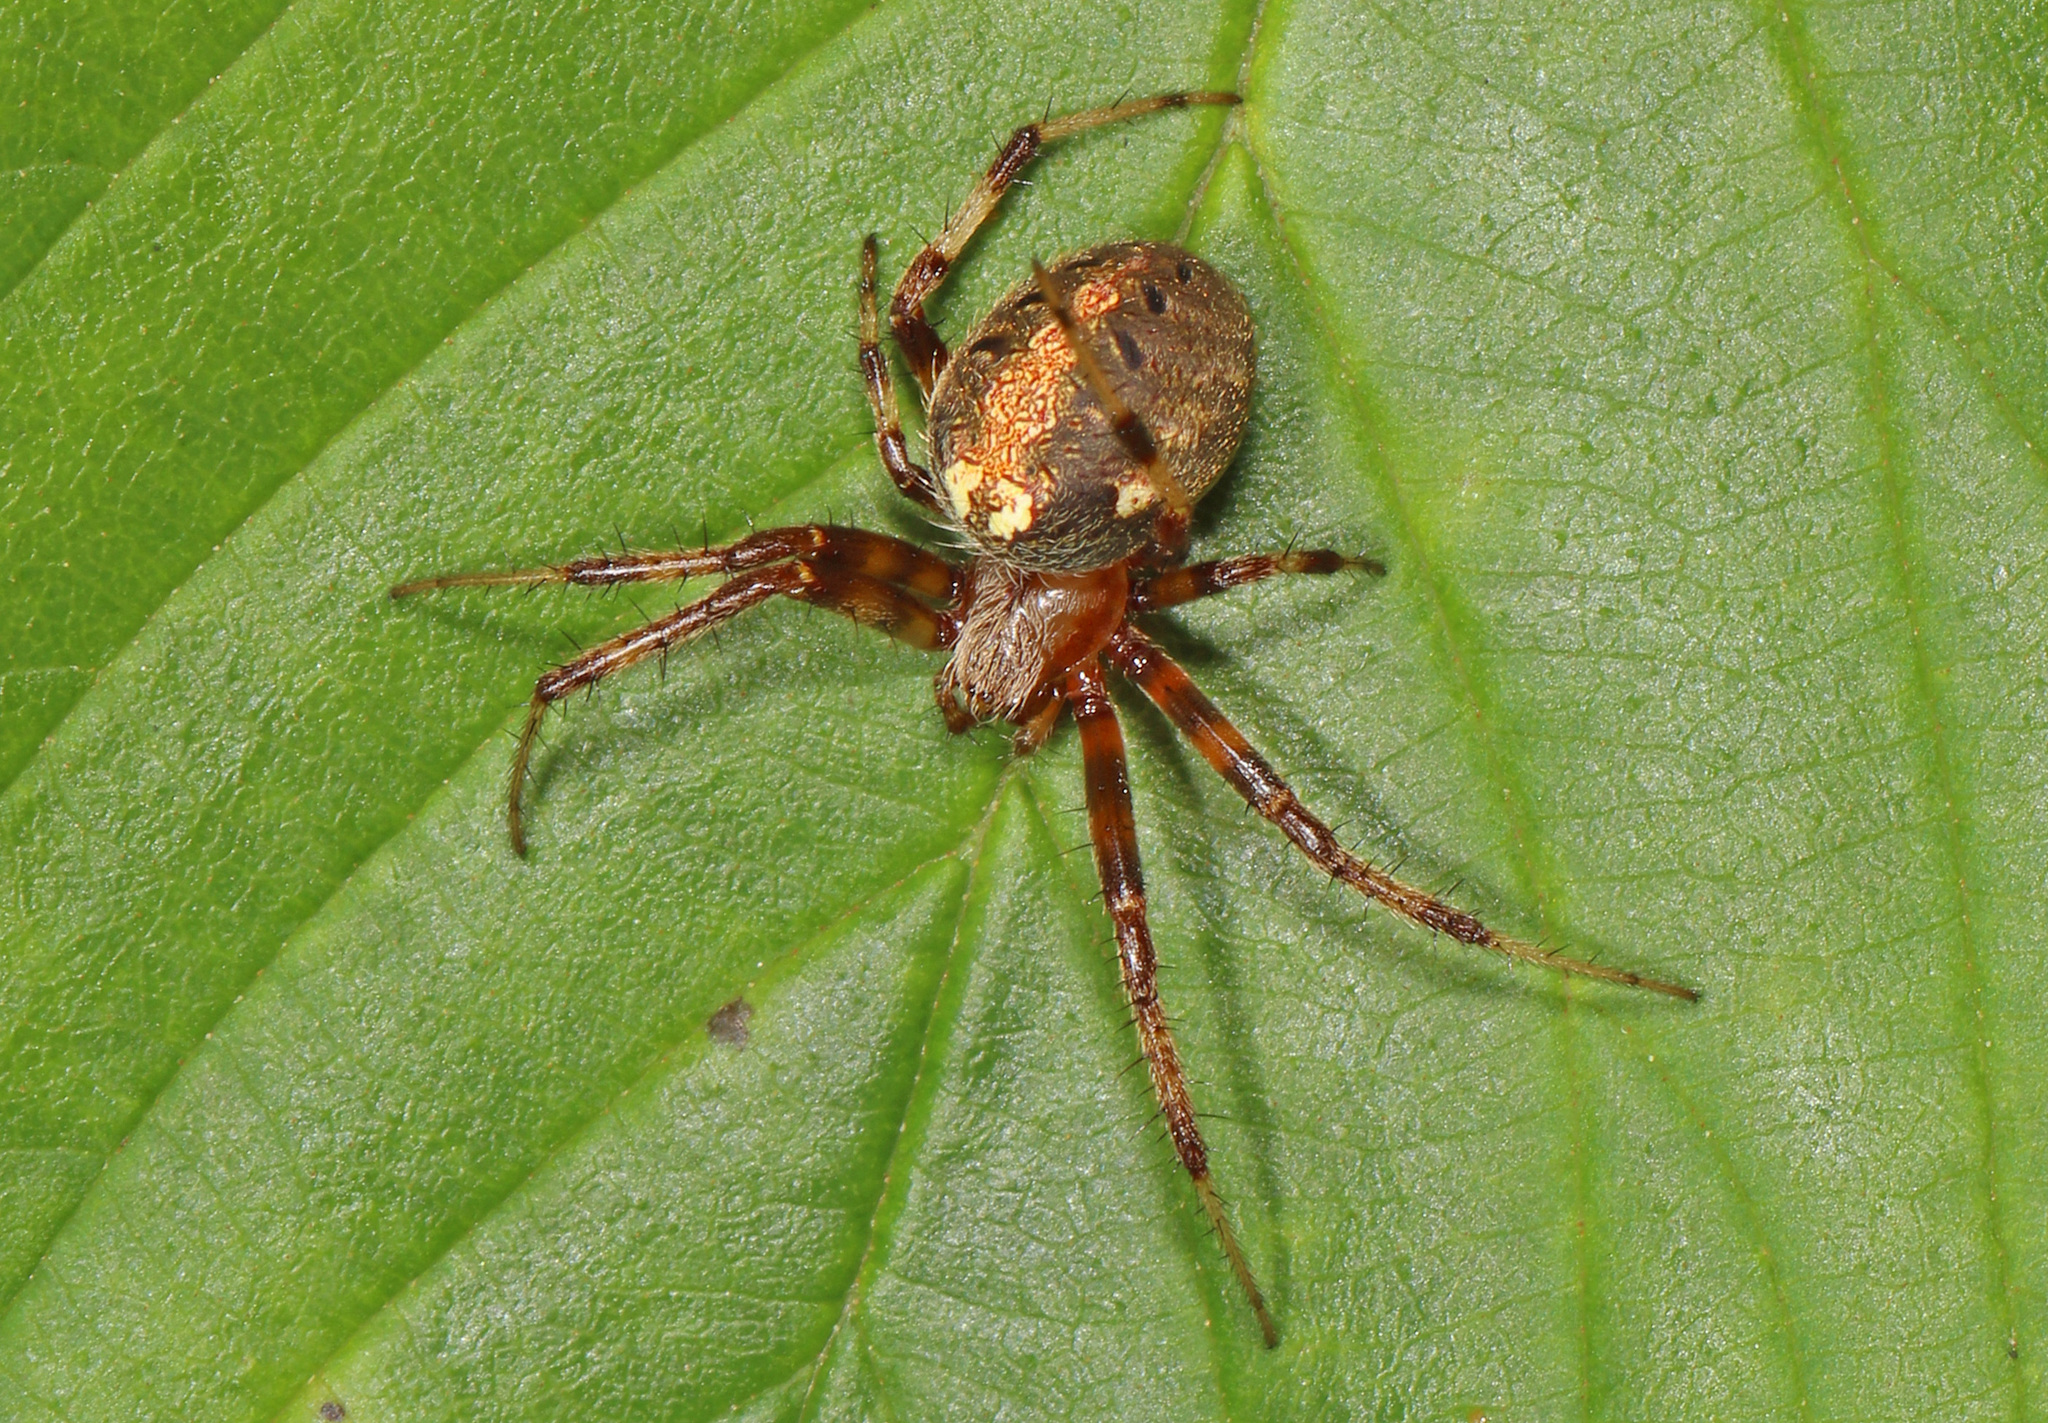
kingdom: Animalia
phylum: Arthropoda
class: Arachnida
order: Araneae
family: Araneidae
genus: Neoscona
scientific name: Neoscona arabesca
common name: Orb weavers
